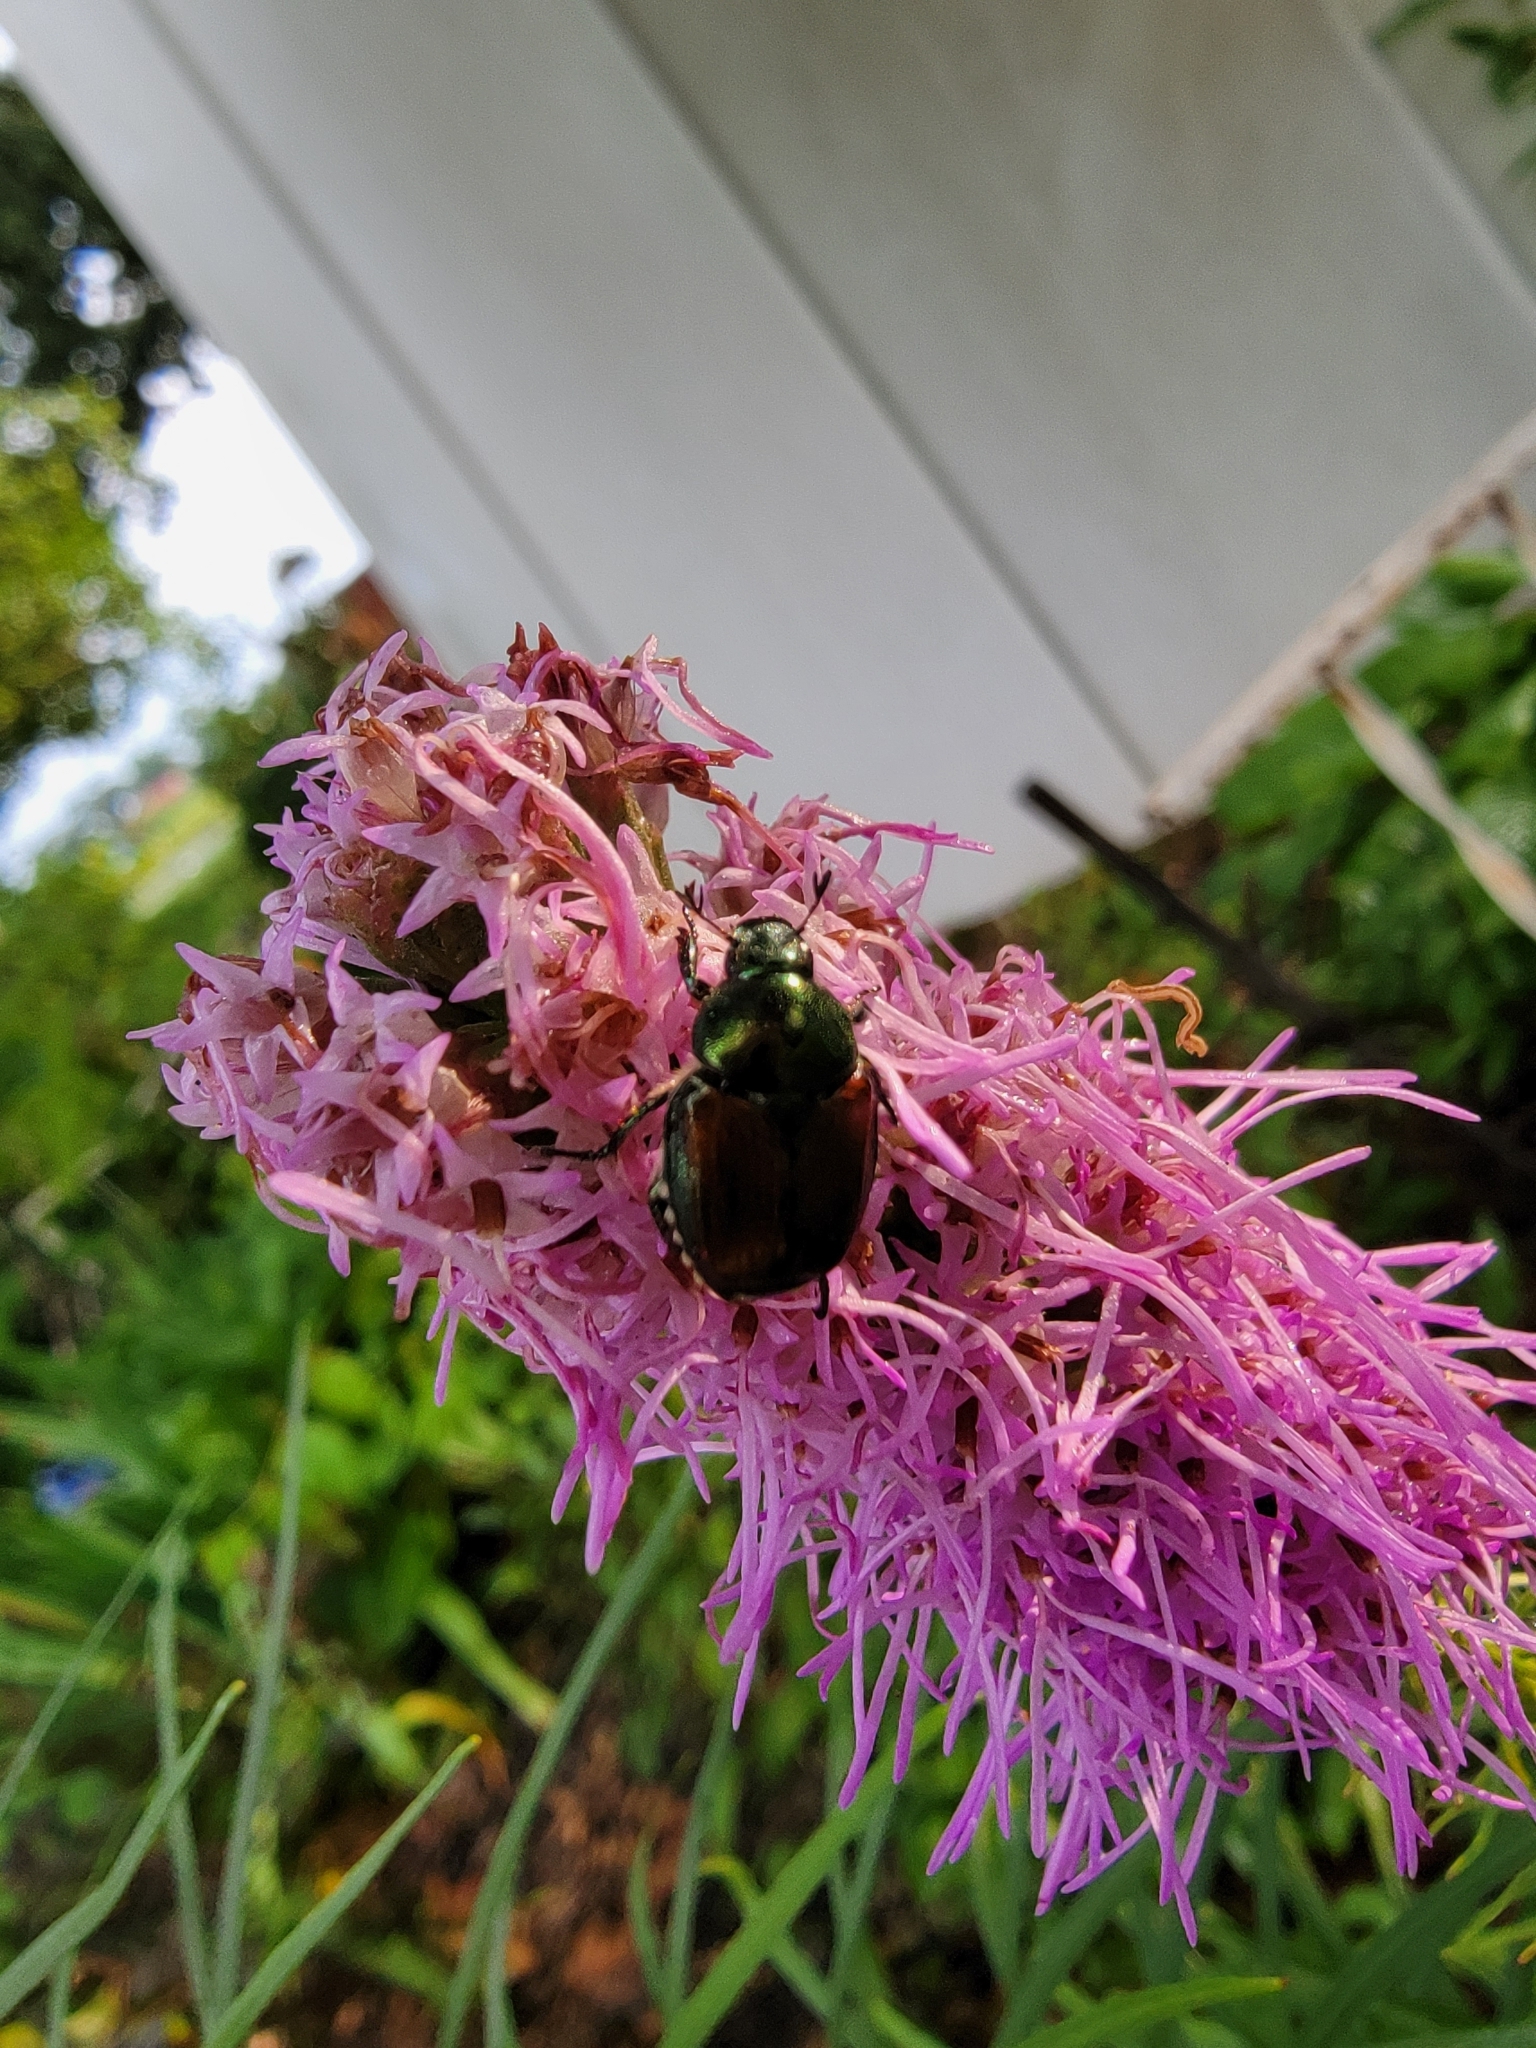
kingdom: Animalia
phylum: Arthropoda
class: Insecta
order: Coleoptera
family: Scarabaeidae
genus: Popillia
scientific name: Popillia japonica
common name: Japanese beetle
